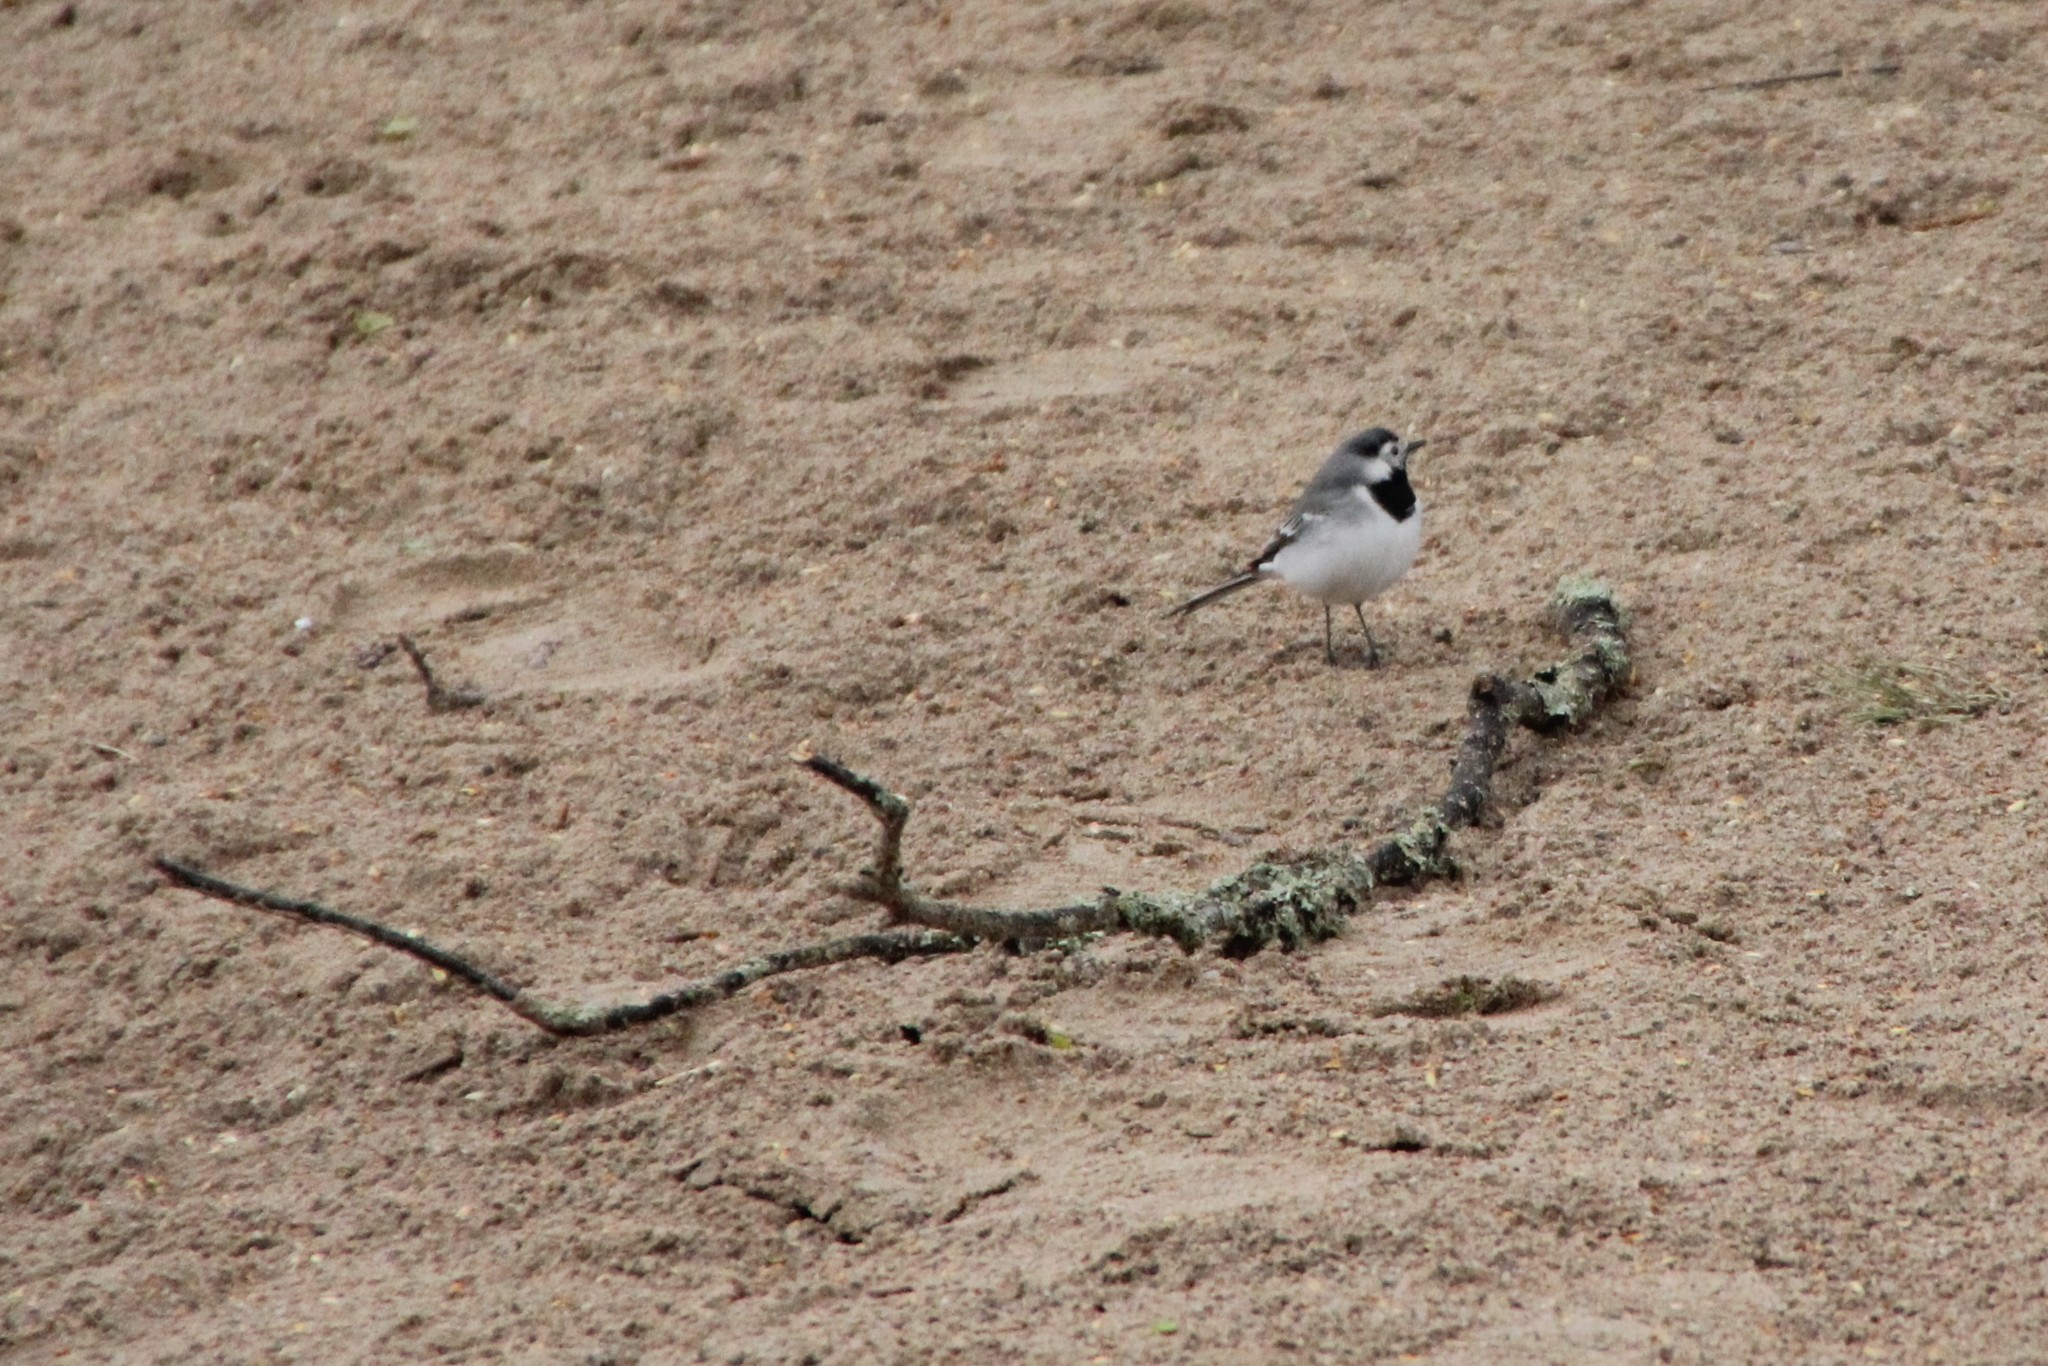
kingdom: Animalia
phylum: Chordata
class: Aves
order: Passeriformes
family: Motacillidae
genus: Motacilla
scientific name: Motacilla alba
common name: White wagtail
